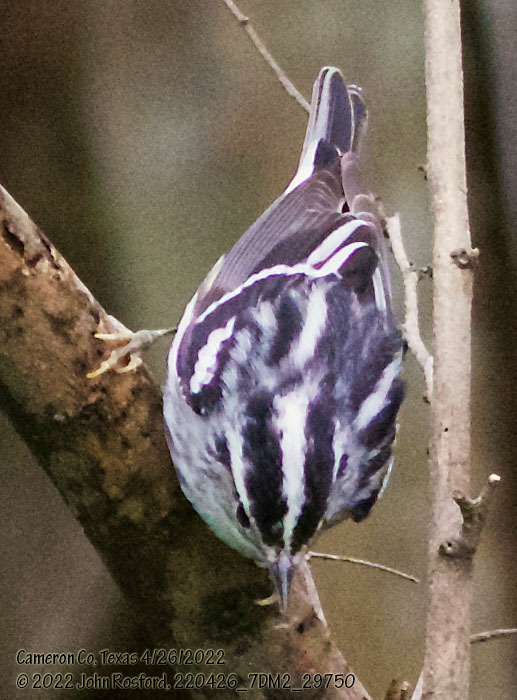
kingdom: Animalia
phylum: Chordata
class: Aves
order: Passeriformes
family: Parulidae
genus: Mniotilta
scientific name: Mniotilta varia
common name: Black-and-white warbler
